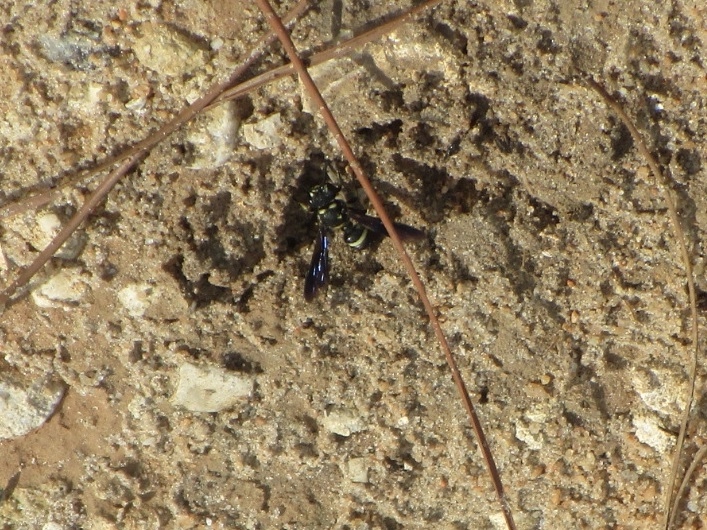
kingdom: Animalia
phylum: Arthropoda
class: Insecta
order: Hymenoptera
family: Crabronidae
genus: Cerceris
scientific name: Cerceris fumipennis
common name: Smokey-winged beetle bandit wasp
